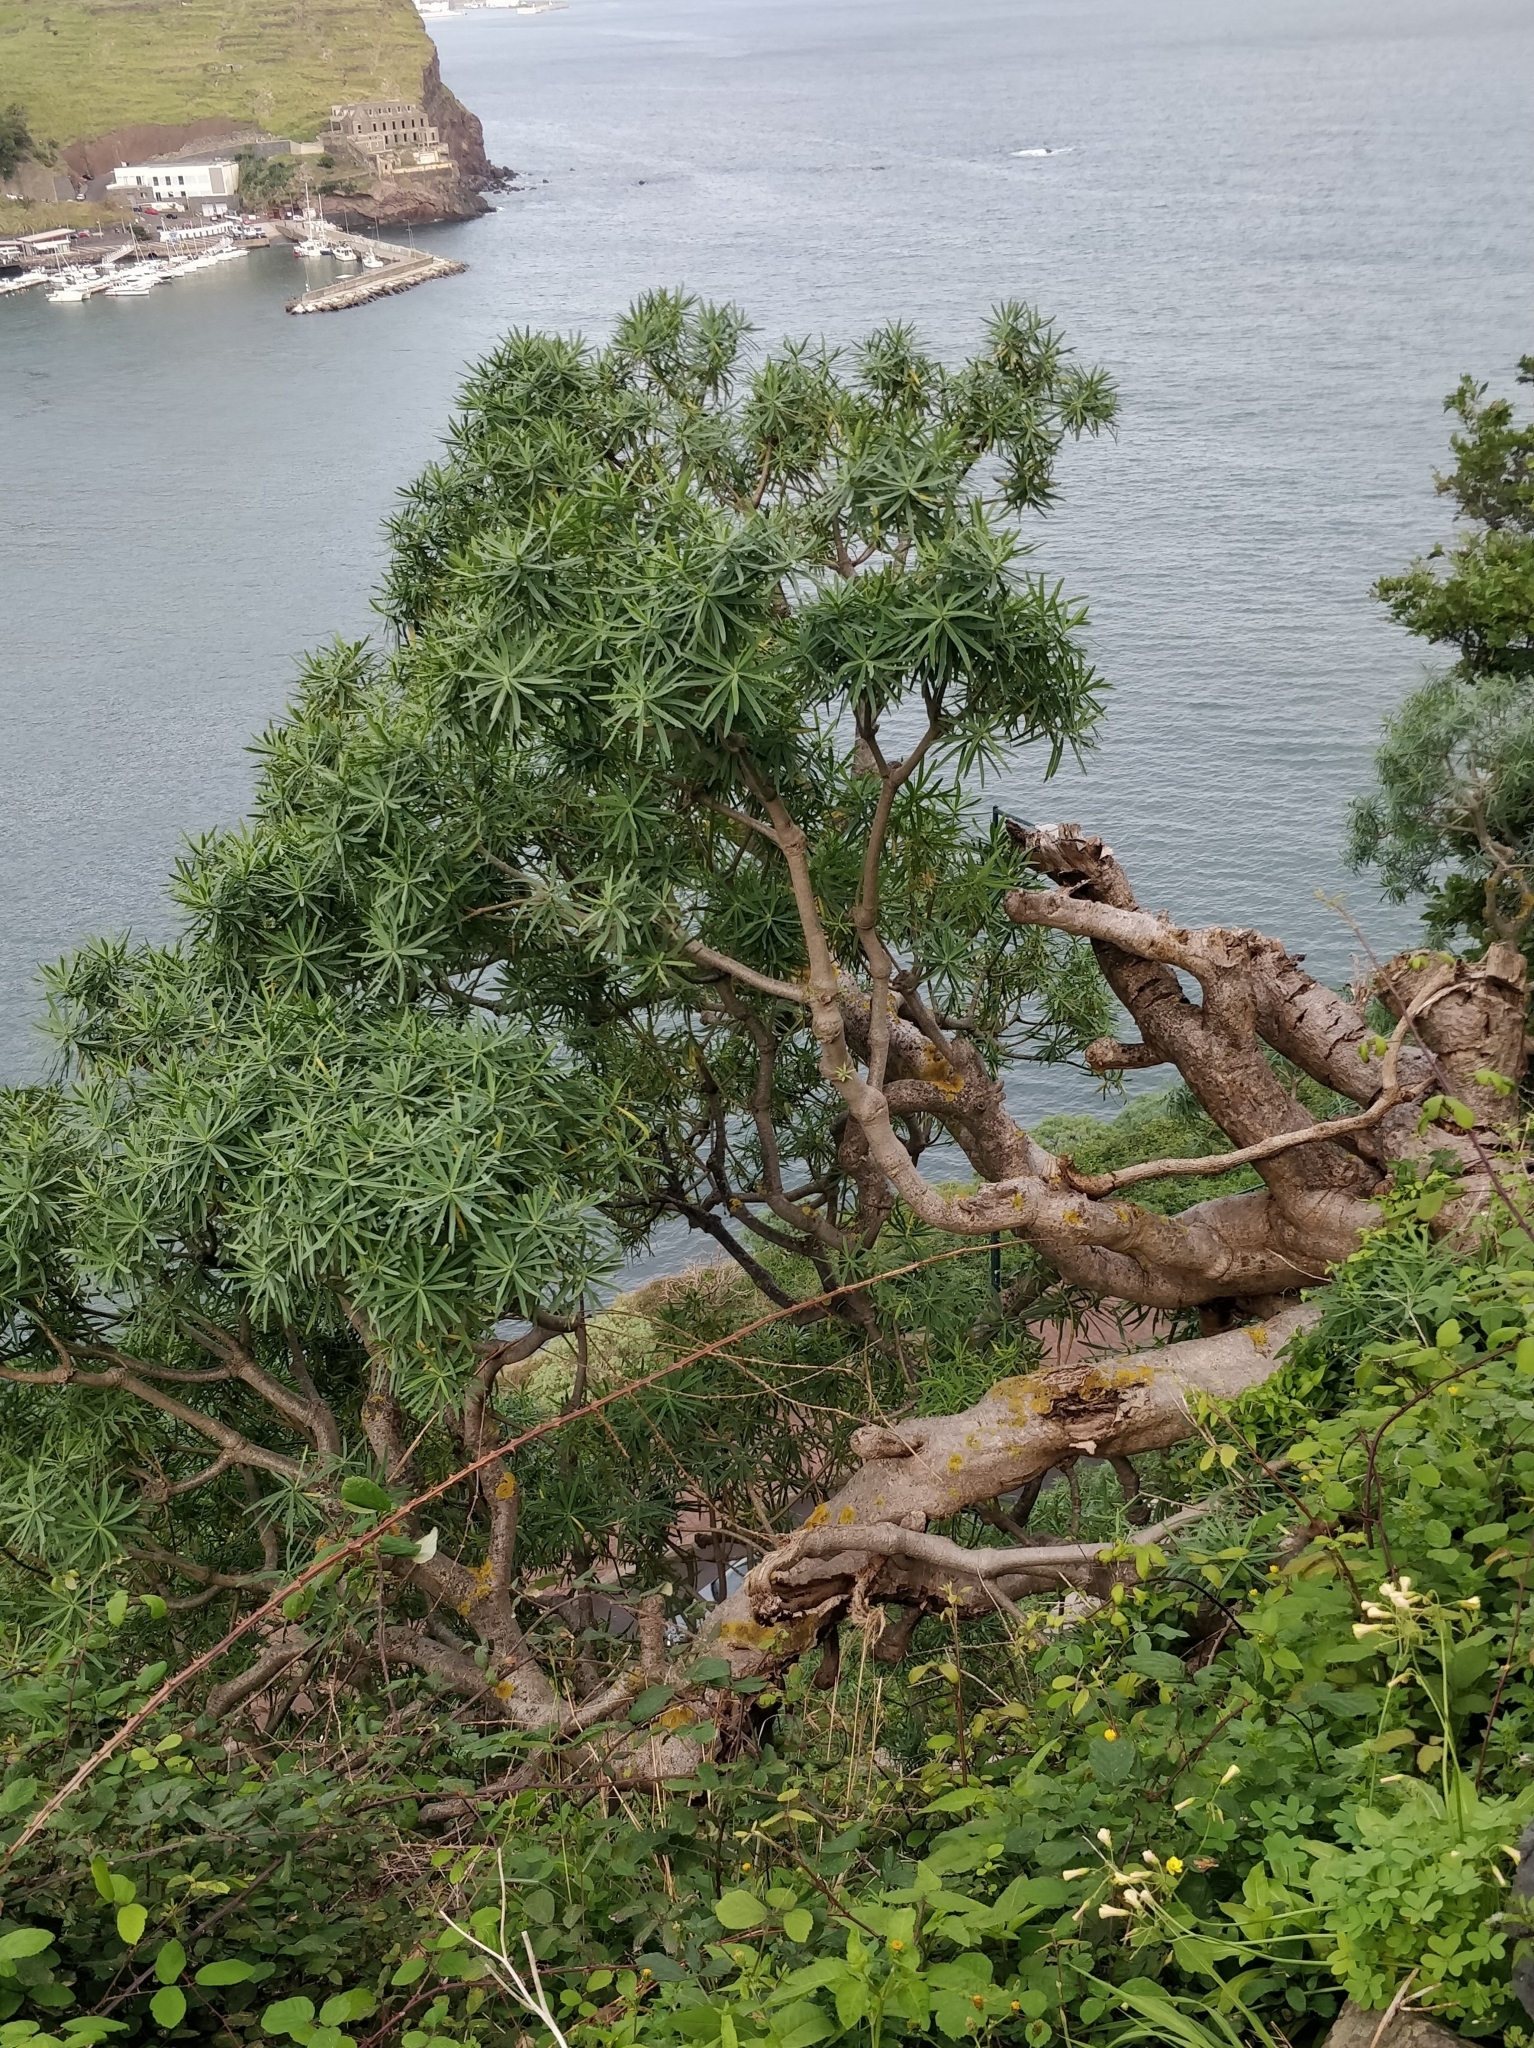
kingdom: Plantae
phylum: Tracheophyta
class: Magnoliopsida
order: Malpighiales
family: Euphorbiaceae
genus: Euphorbia
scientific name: Euphorbia piscatoria
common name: Fish-stunning spurge
